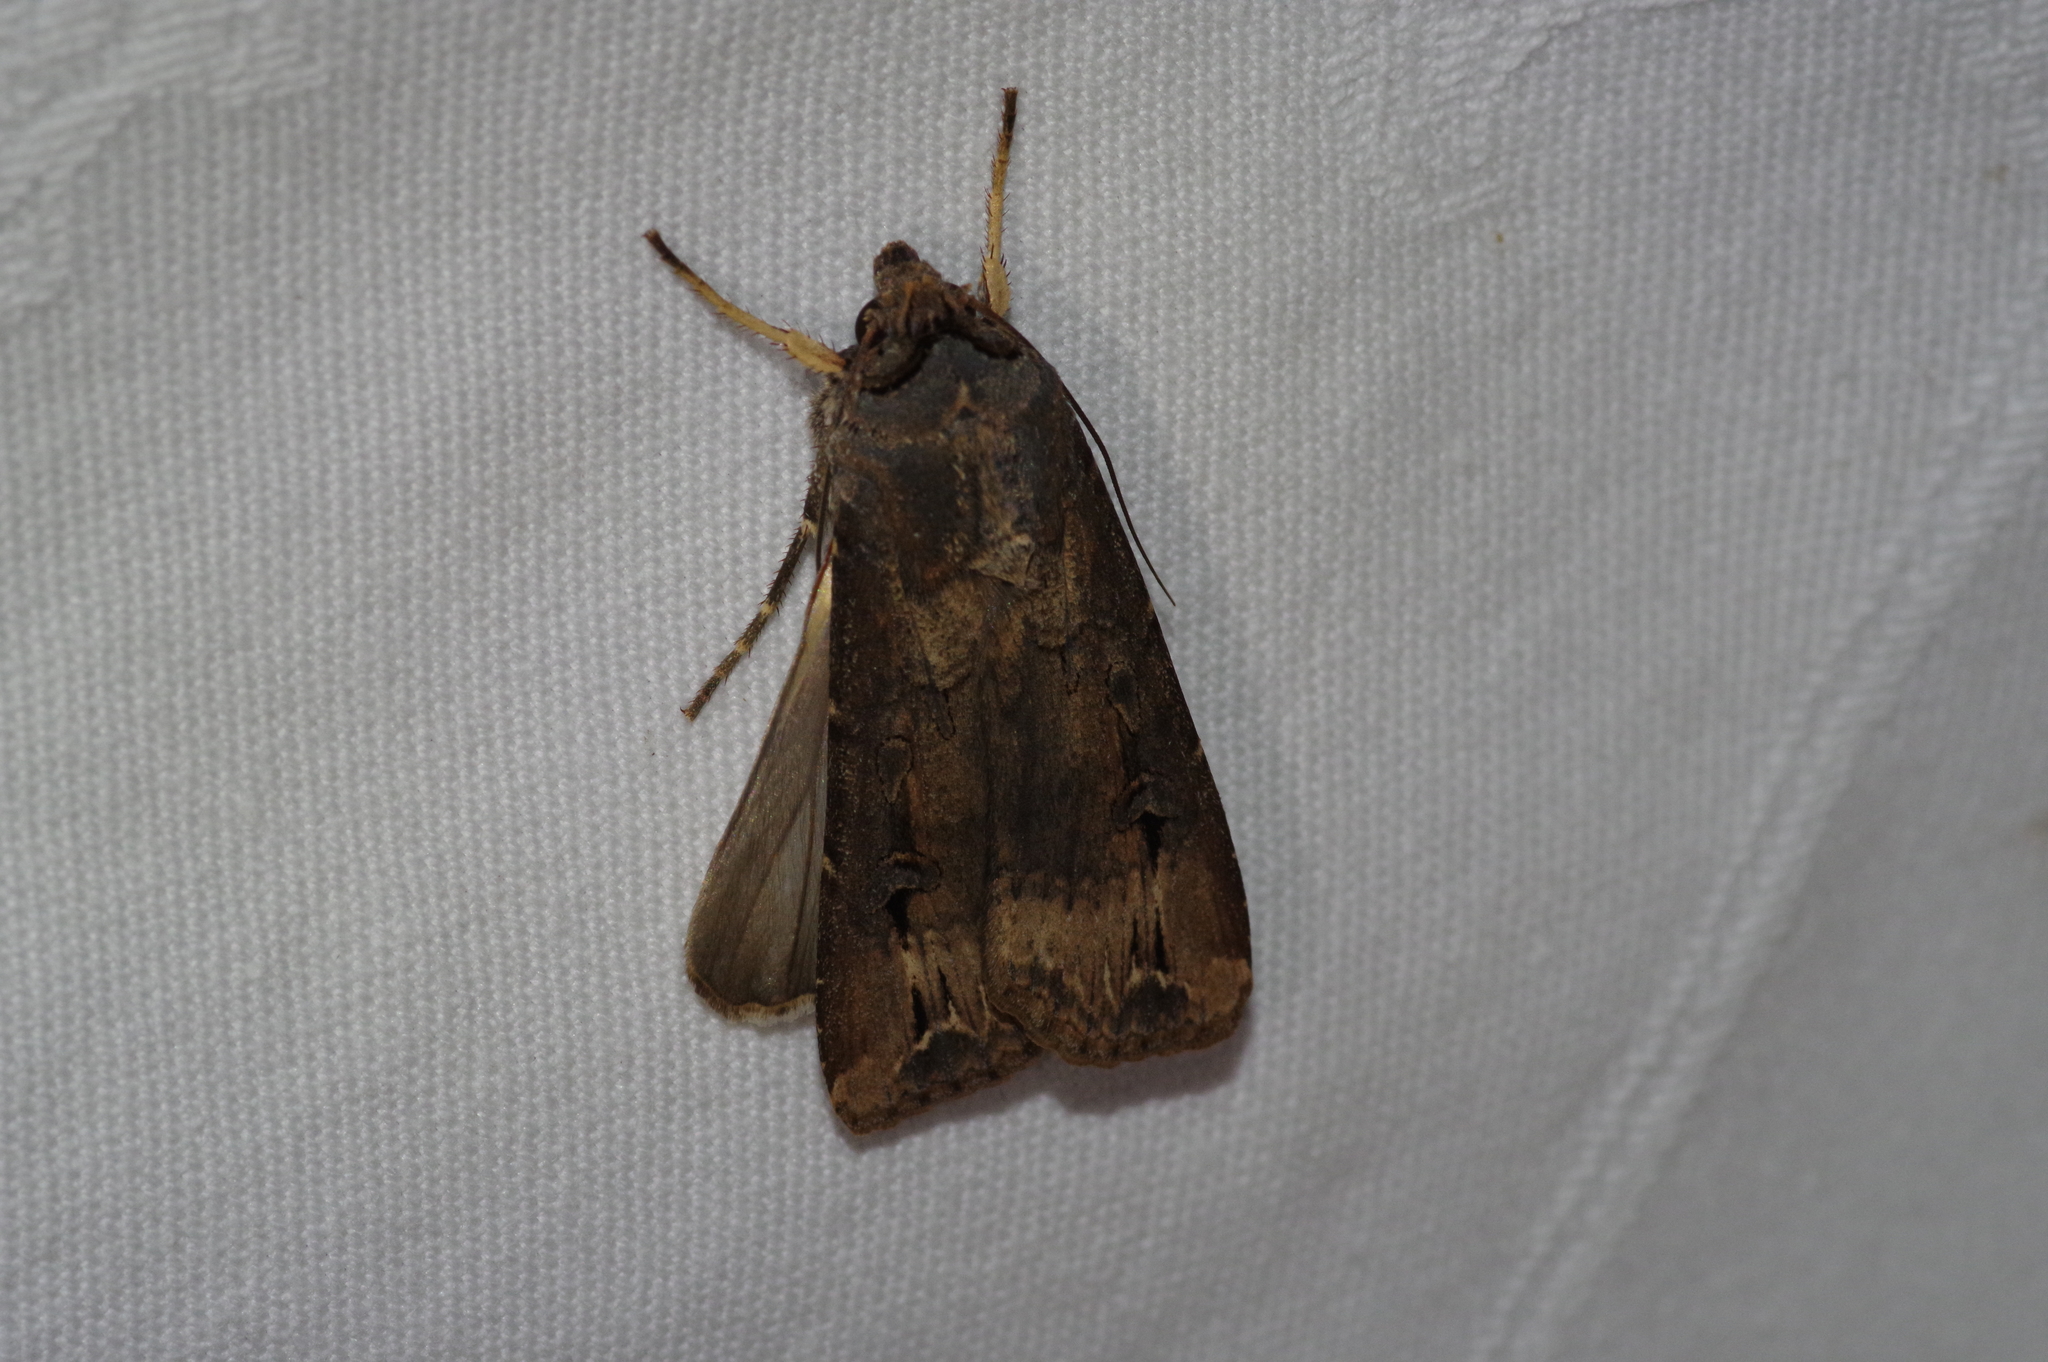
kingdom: Animalia
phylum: Arthropoda
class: Insecta
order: Lepidoptera
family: Noctuidae
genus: Agrotis
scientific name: Agrotis ipsilon
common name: Dark sword-grass
